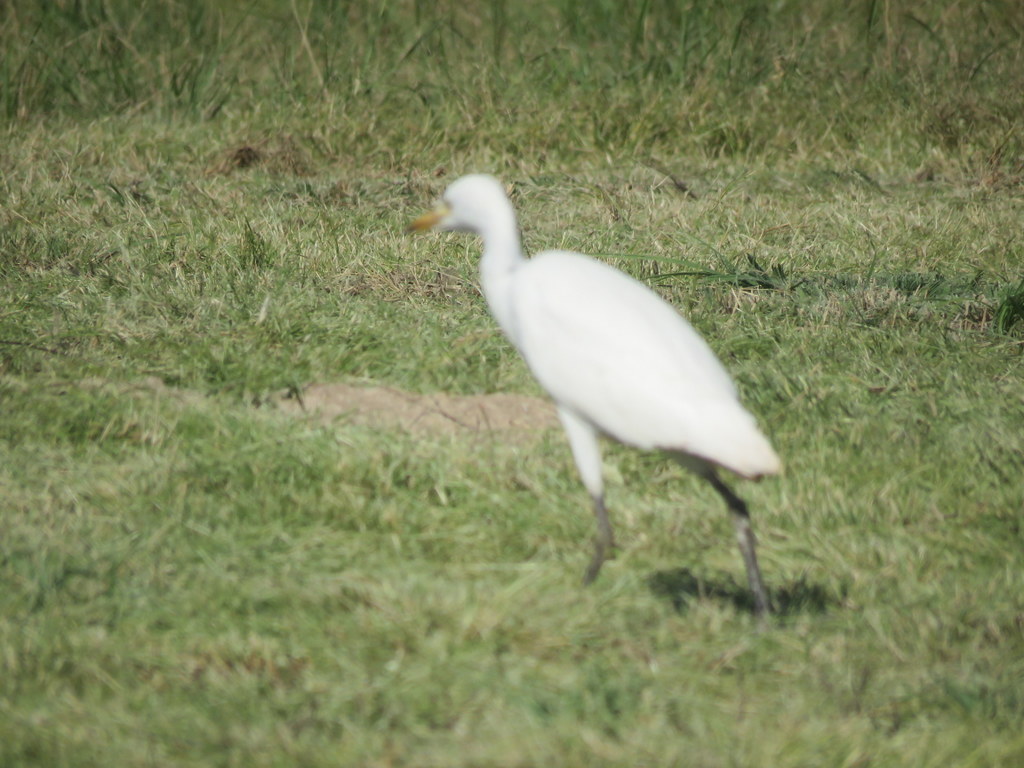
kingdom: Animalia
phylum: Chordata
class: Aves
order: Pelecaniformes
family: Ardeidae
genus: Bubulcus
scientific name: Bubulcus ibis
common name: Cattle egret
